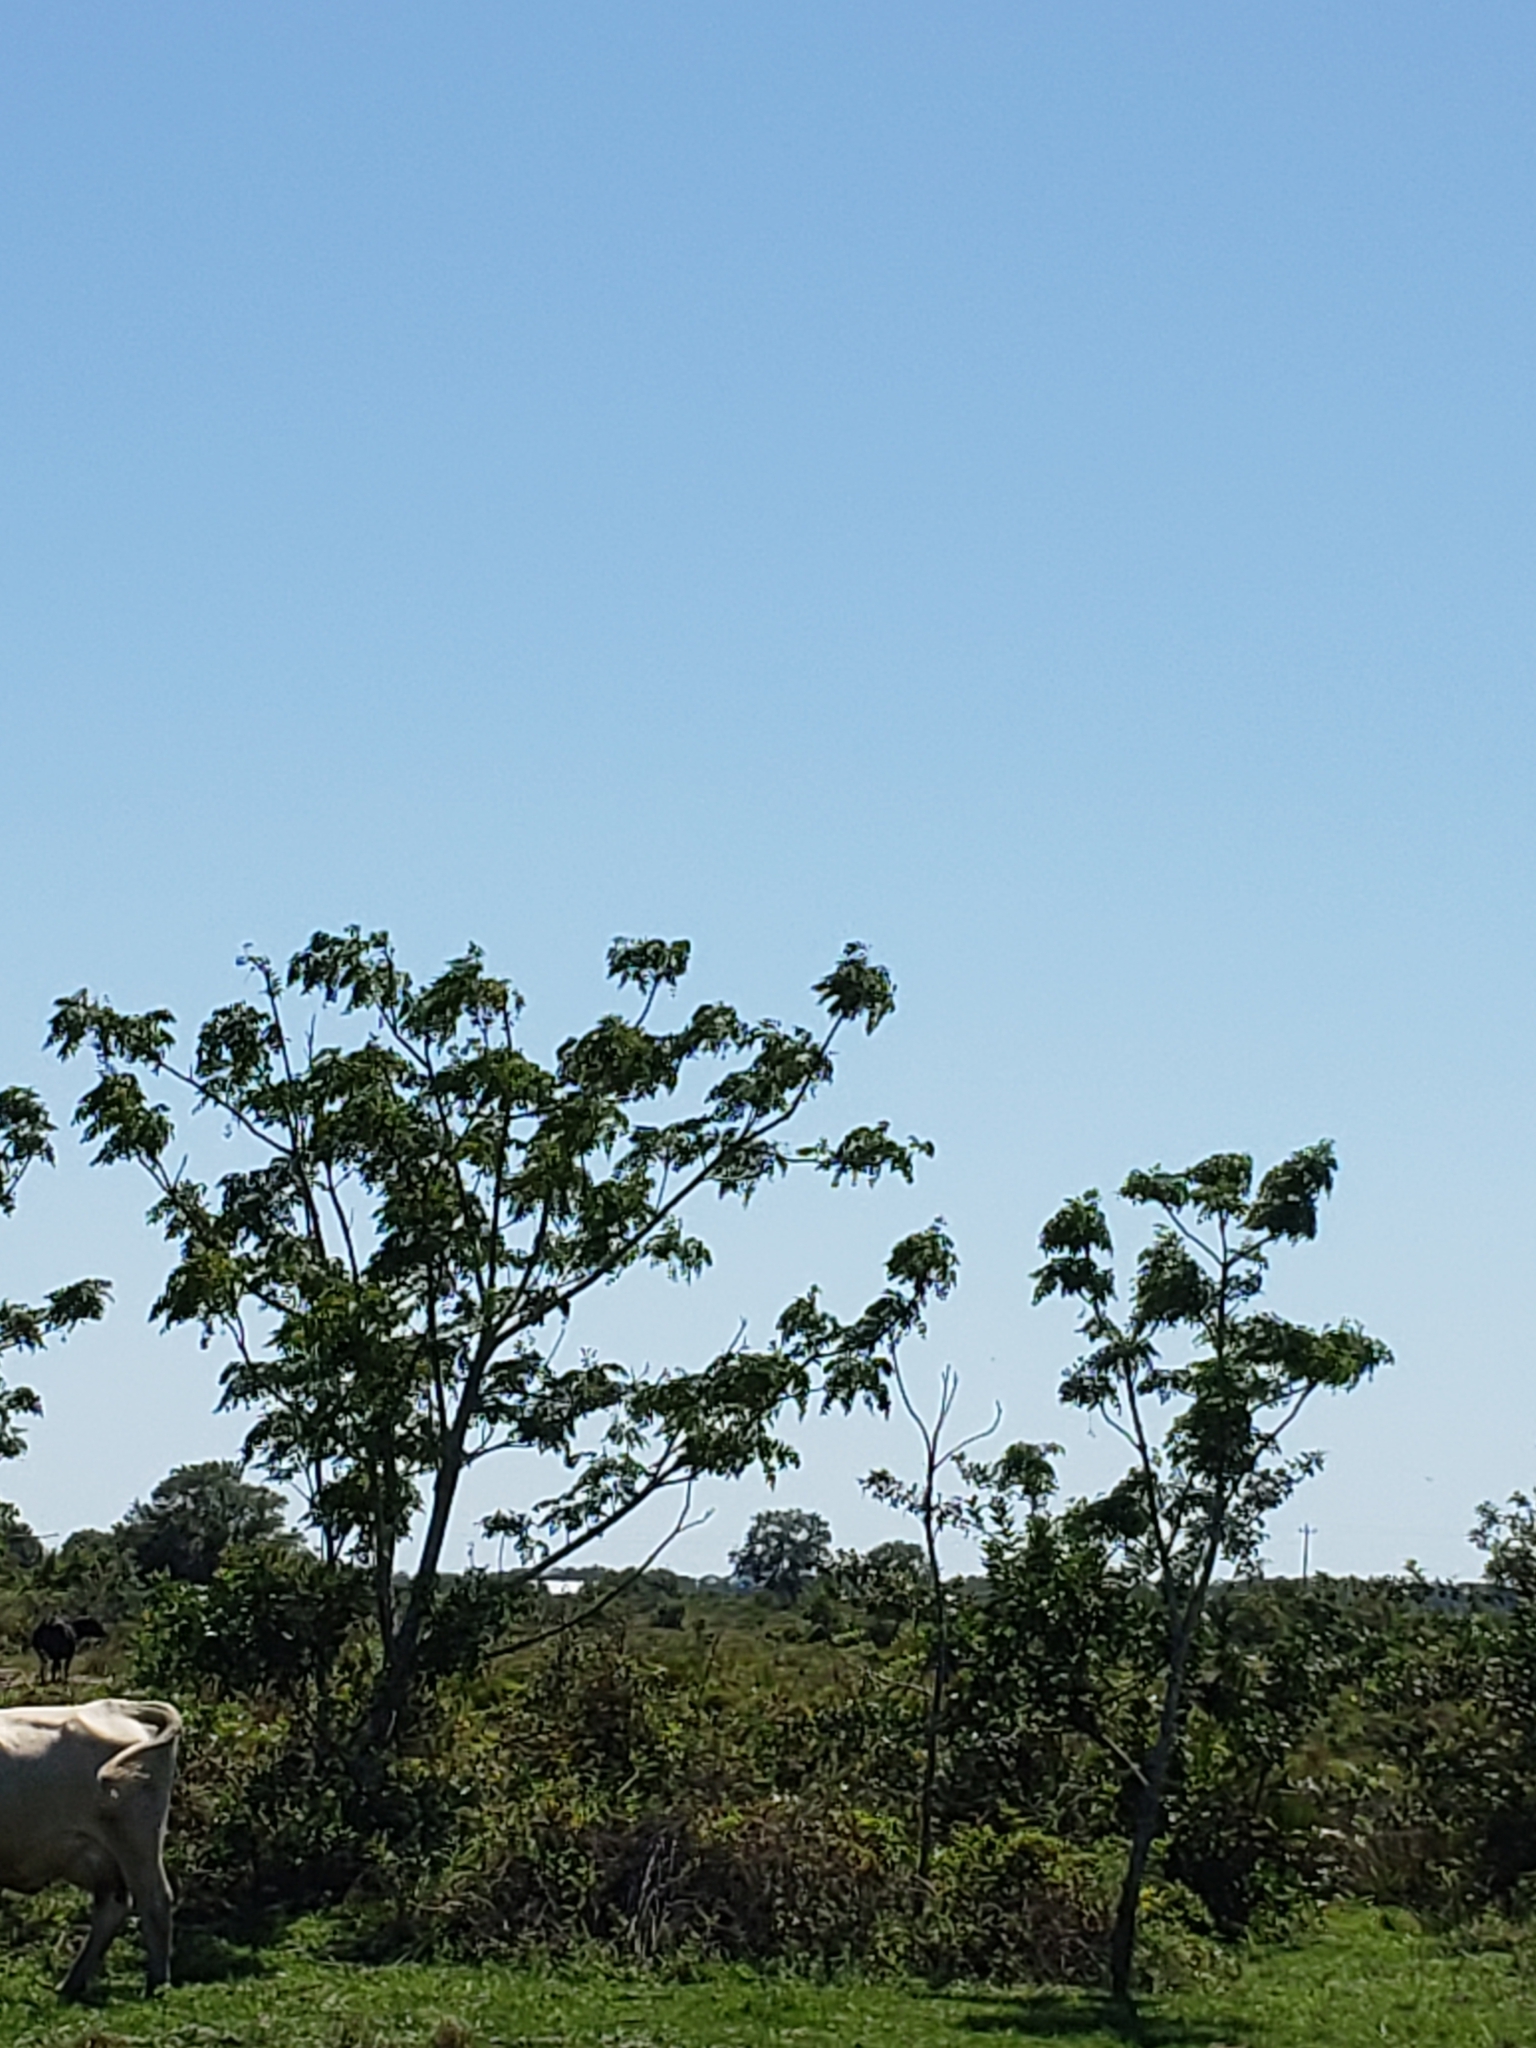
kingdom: Plantae
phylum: Tracheophyta
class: Magnoliopsida
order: Sapindales
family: Meliaceae
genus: Melia
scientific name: Melia azedarach
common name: Chinaberrytree
